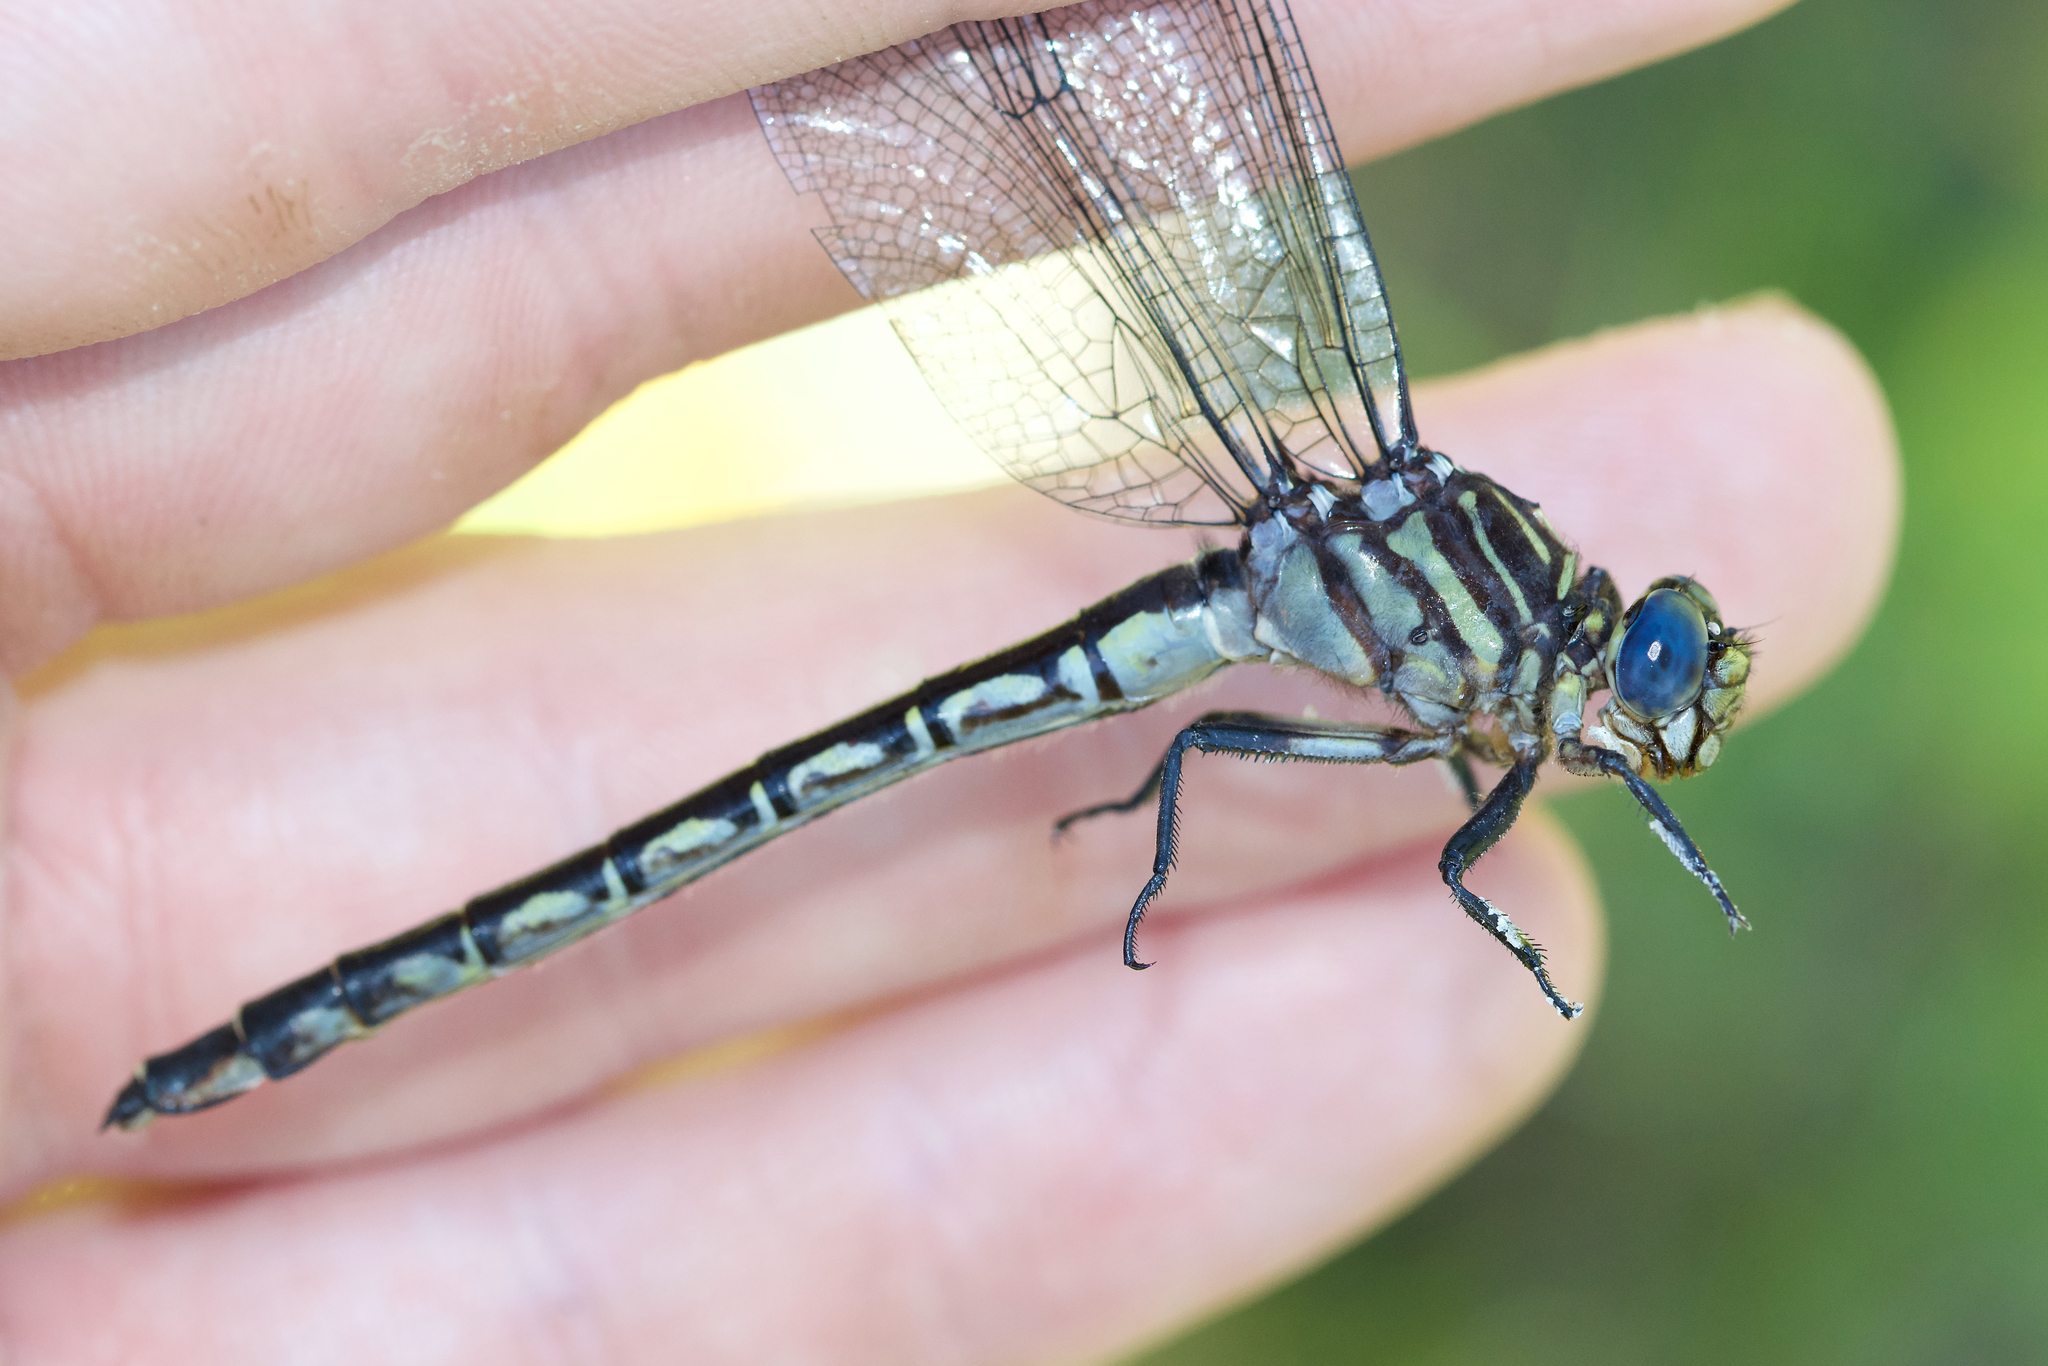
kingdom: Animalia
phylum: Arthropoda
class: Insecta
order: Odonata
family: Gomphidae
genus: Stylurus
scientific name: Stylurus notatus
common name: Elusive clubtail
